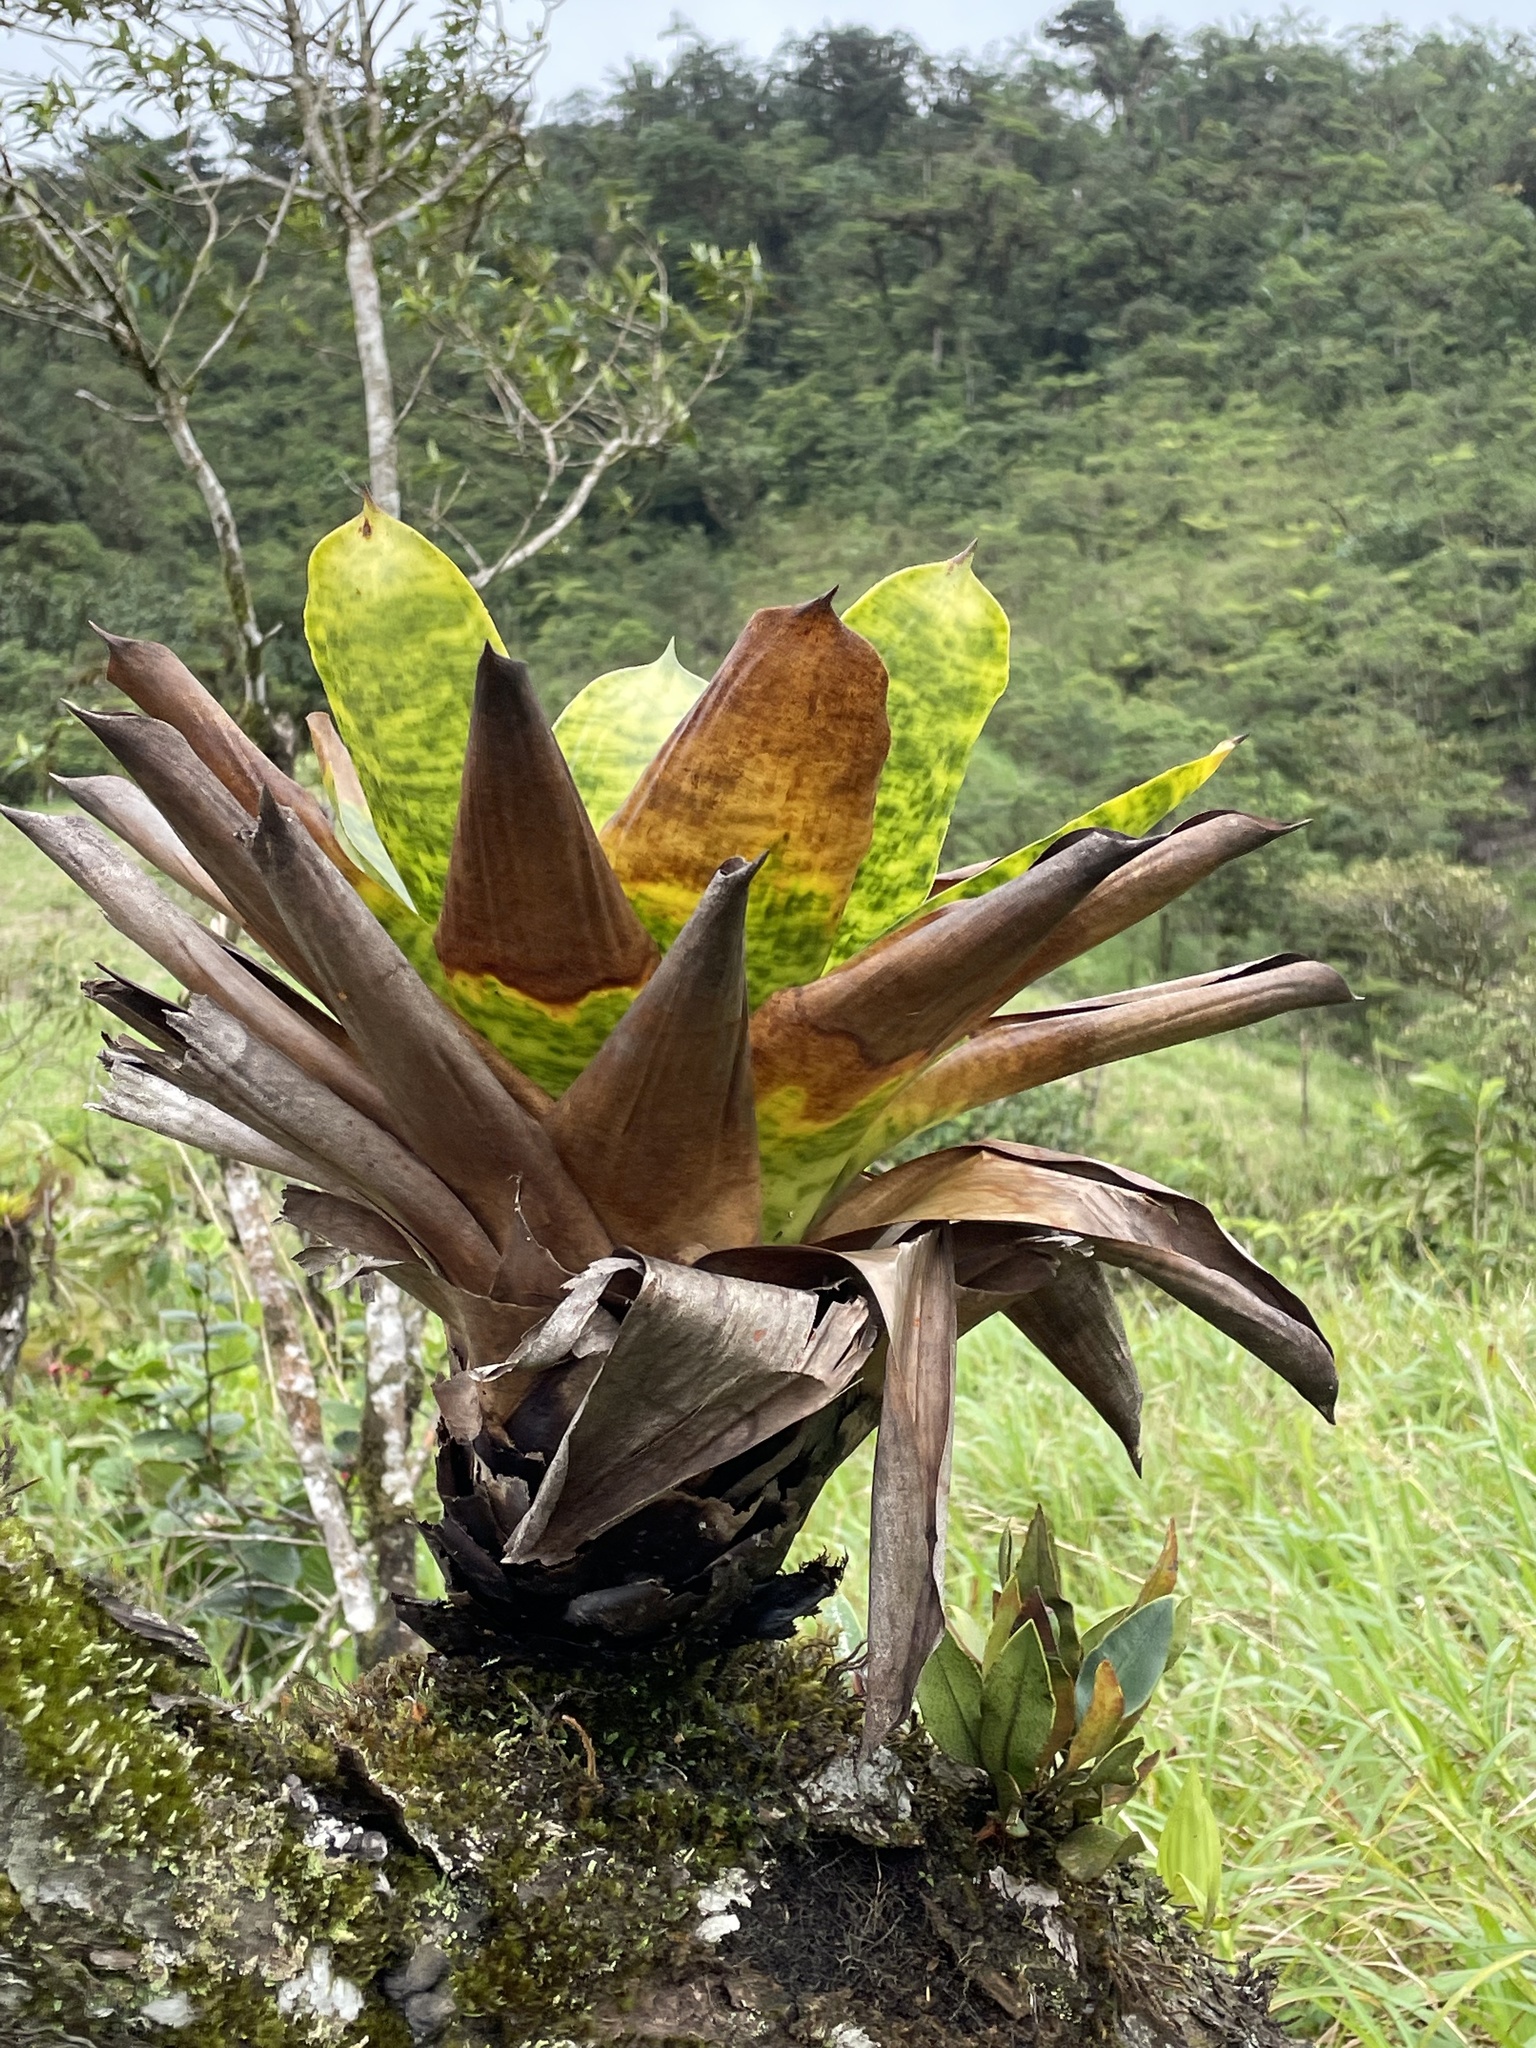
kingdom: Plantae
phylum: Tracheophyta
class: Liliopsida
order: Poales
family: Bromeliaceae
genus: Werauhia
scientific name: Werauhia kupperiana
